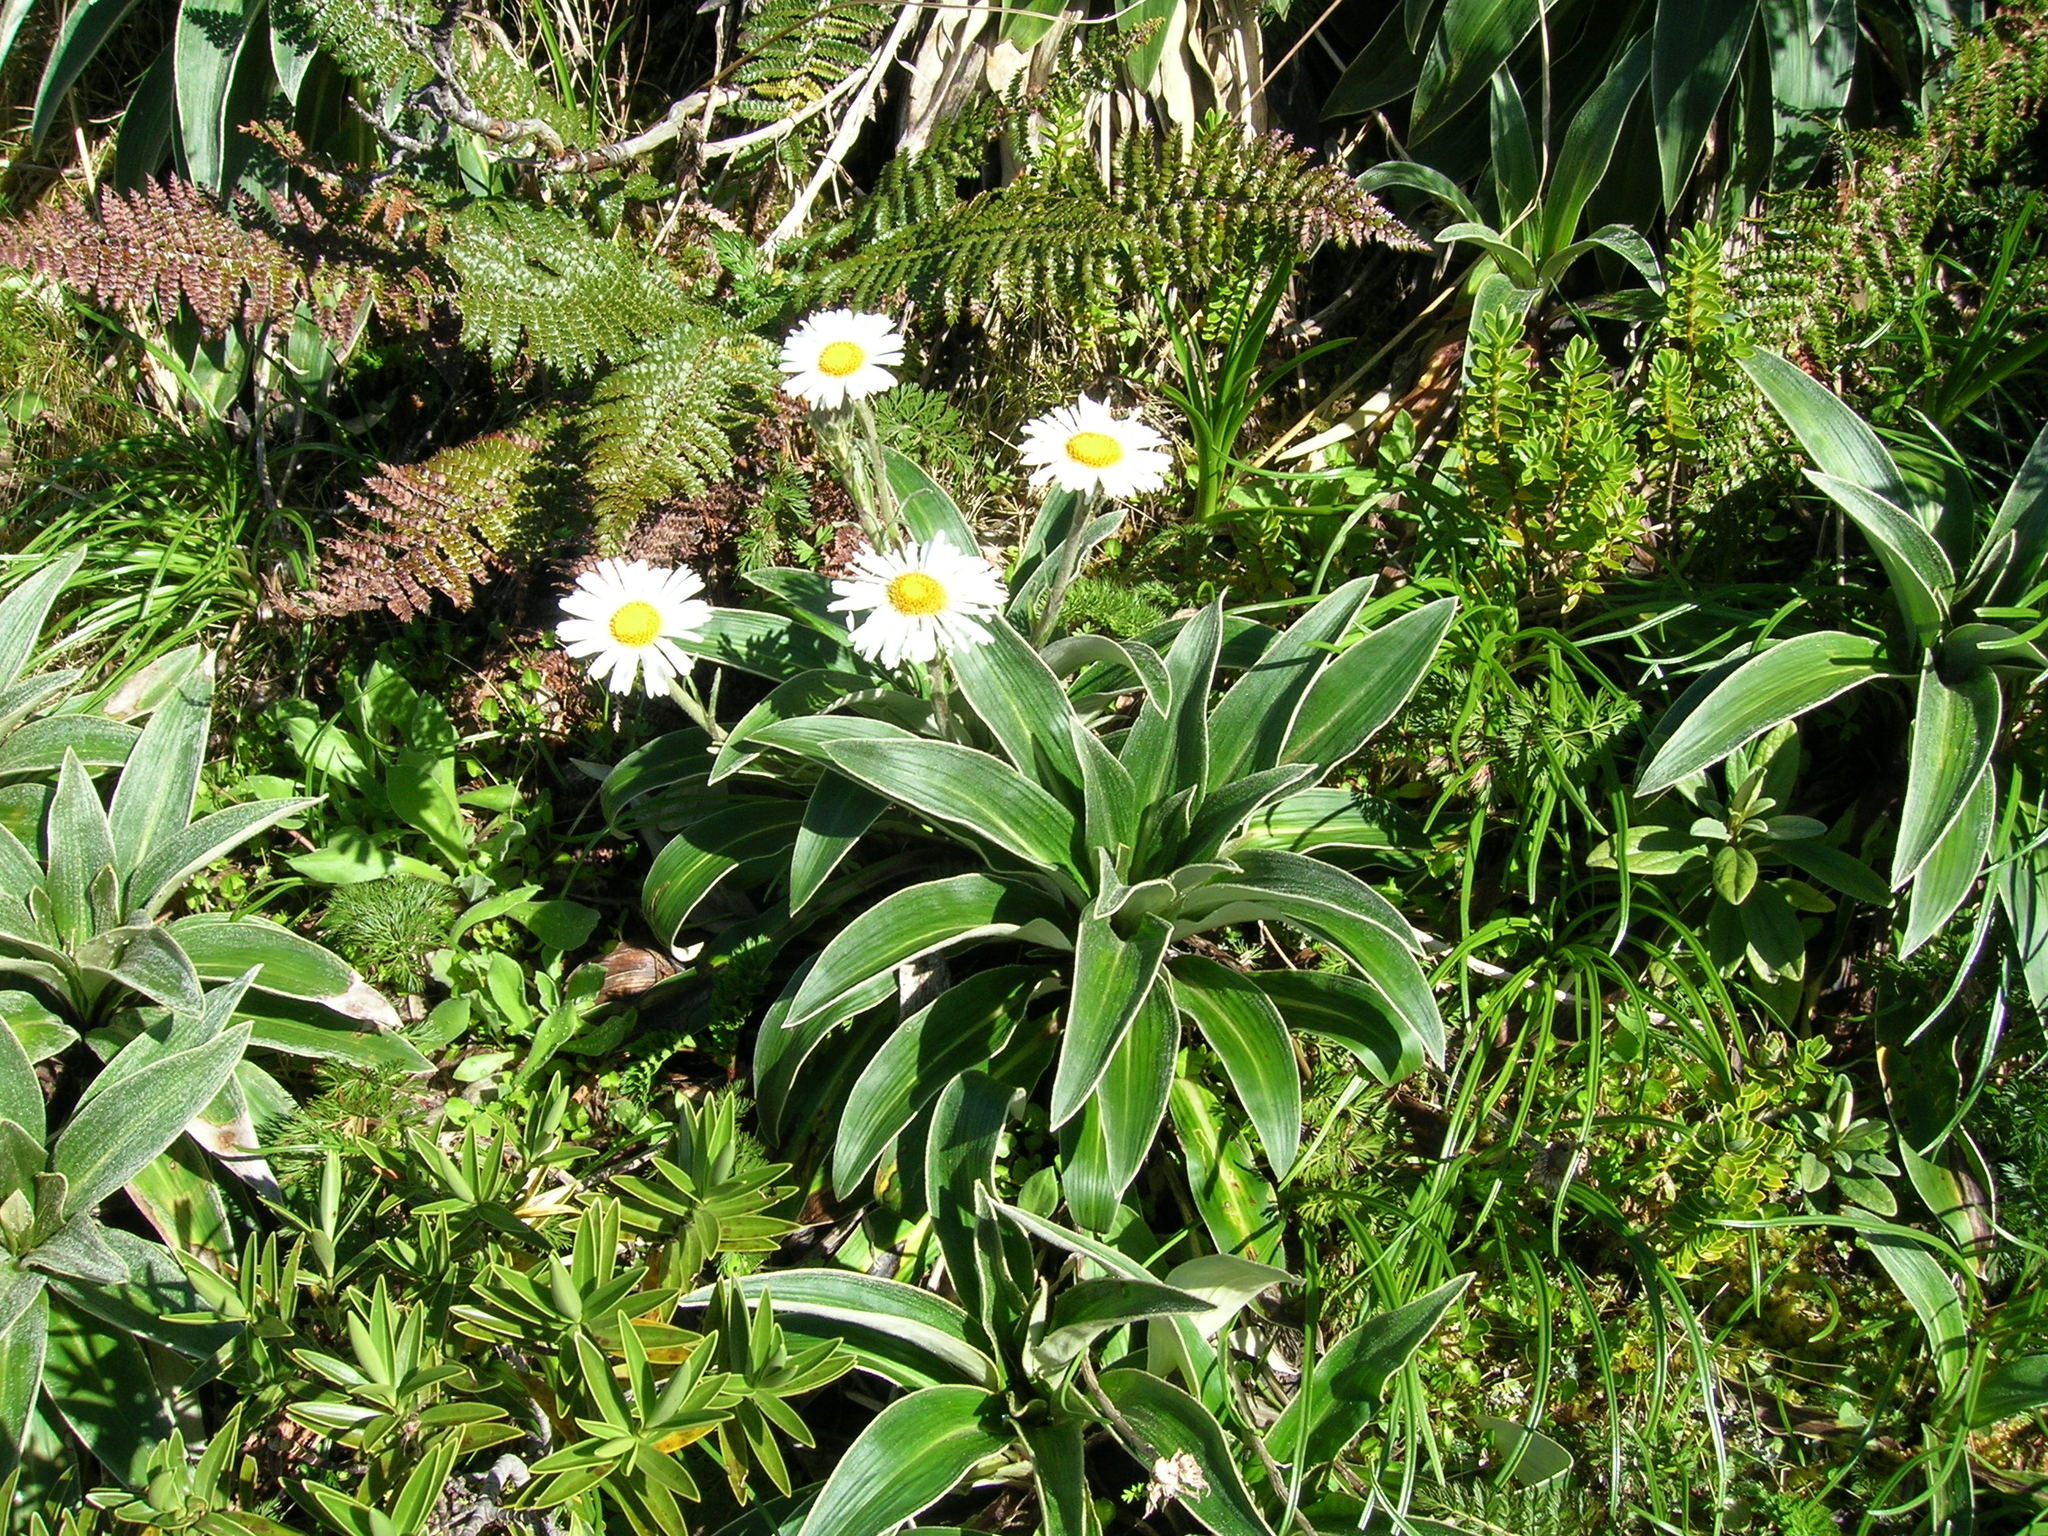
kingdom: Plantae
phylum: Tracheophyta
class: Magnoliopsida
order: Asterales
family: Asteraceae
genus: Celmisia
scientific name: Celmisia verbascifolia
